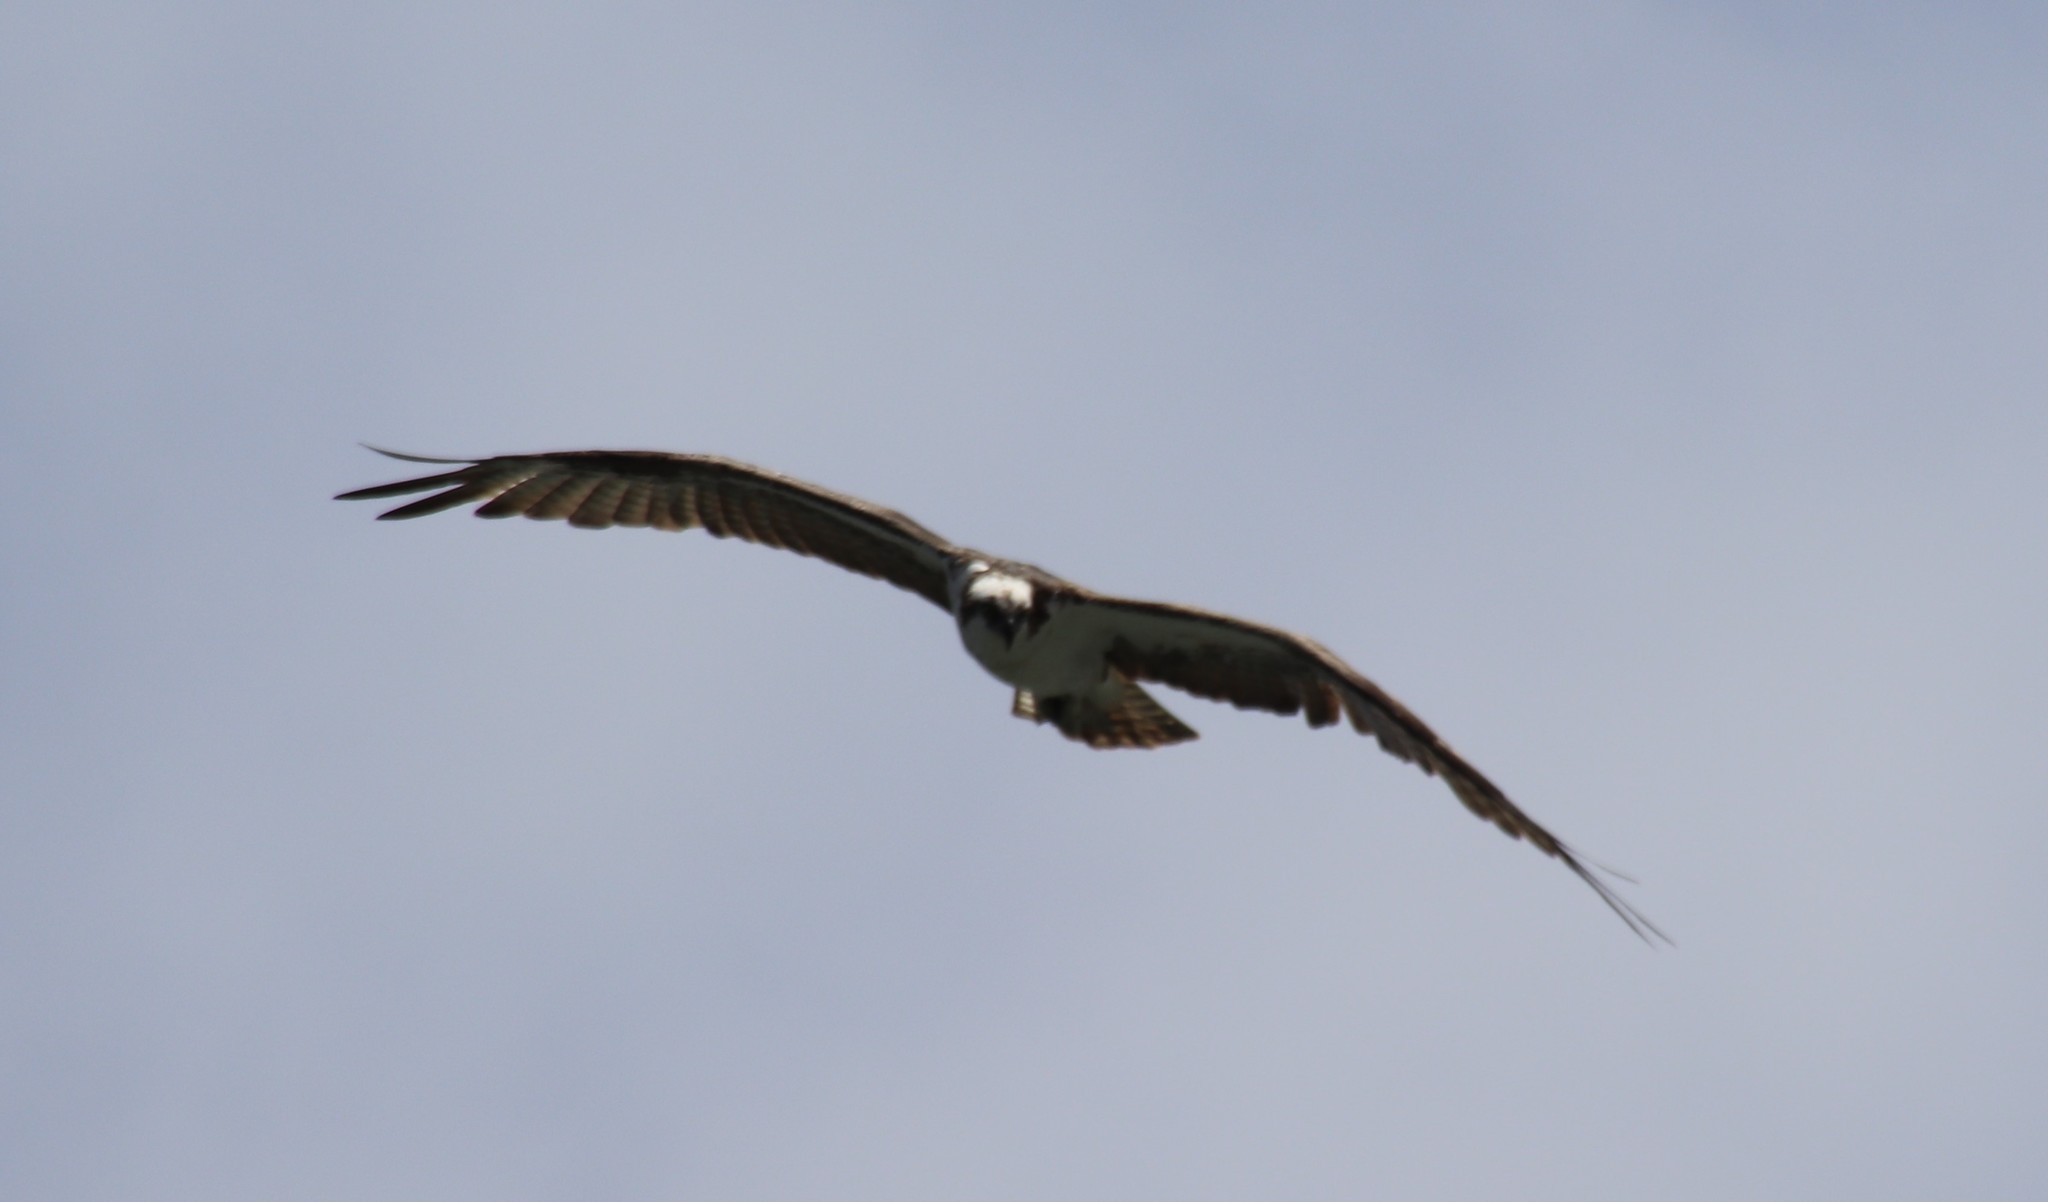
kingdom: Animalia
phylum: Chordata
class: Aves
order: Accipitriformes
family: Pandionidae
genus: Pandion
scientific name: Pandion haliaetus
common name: Osprey
